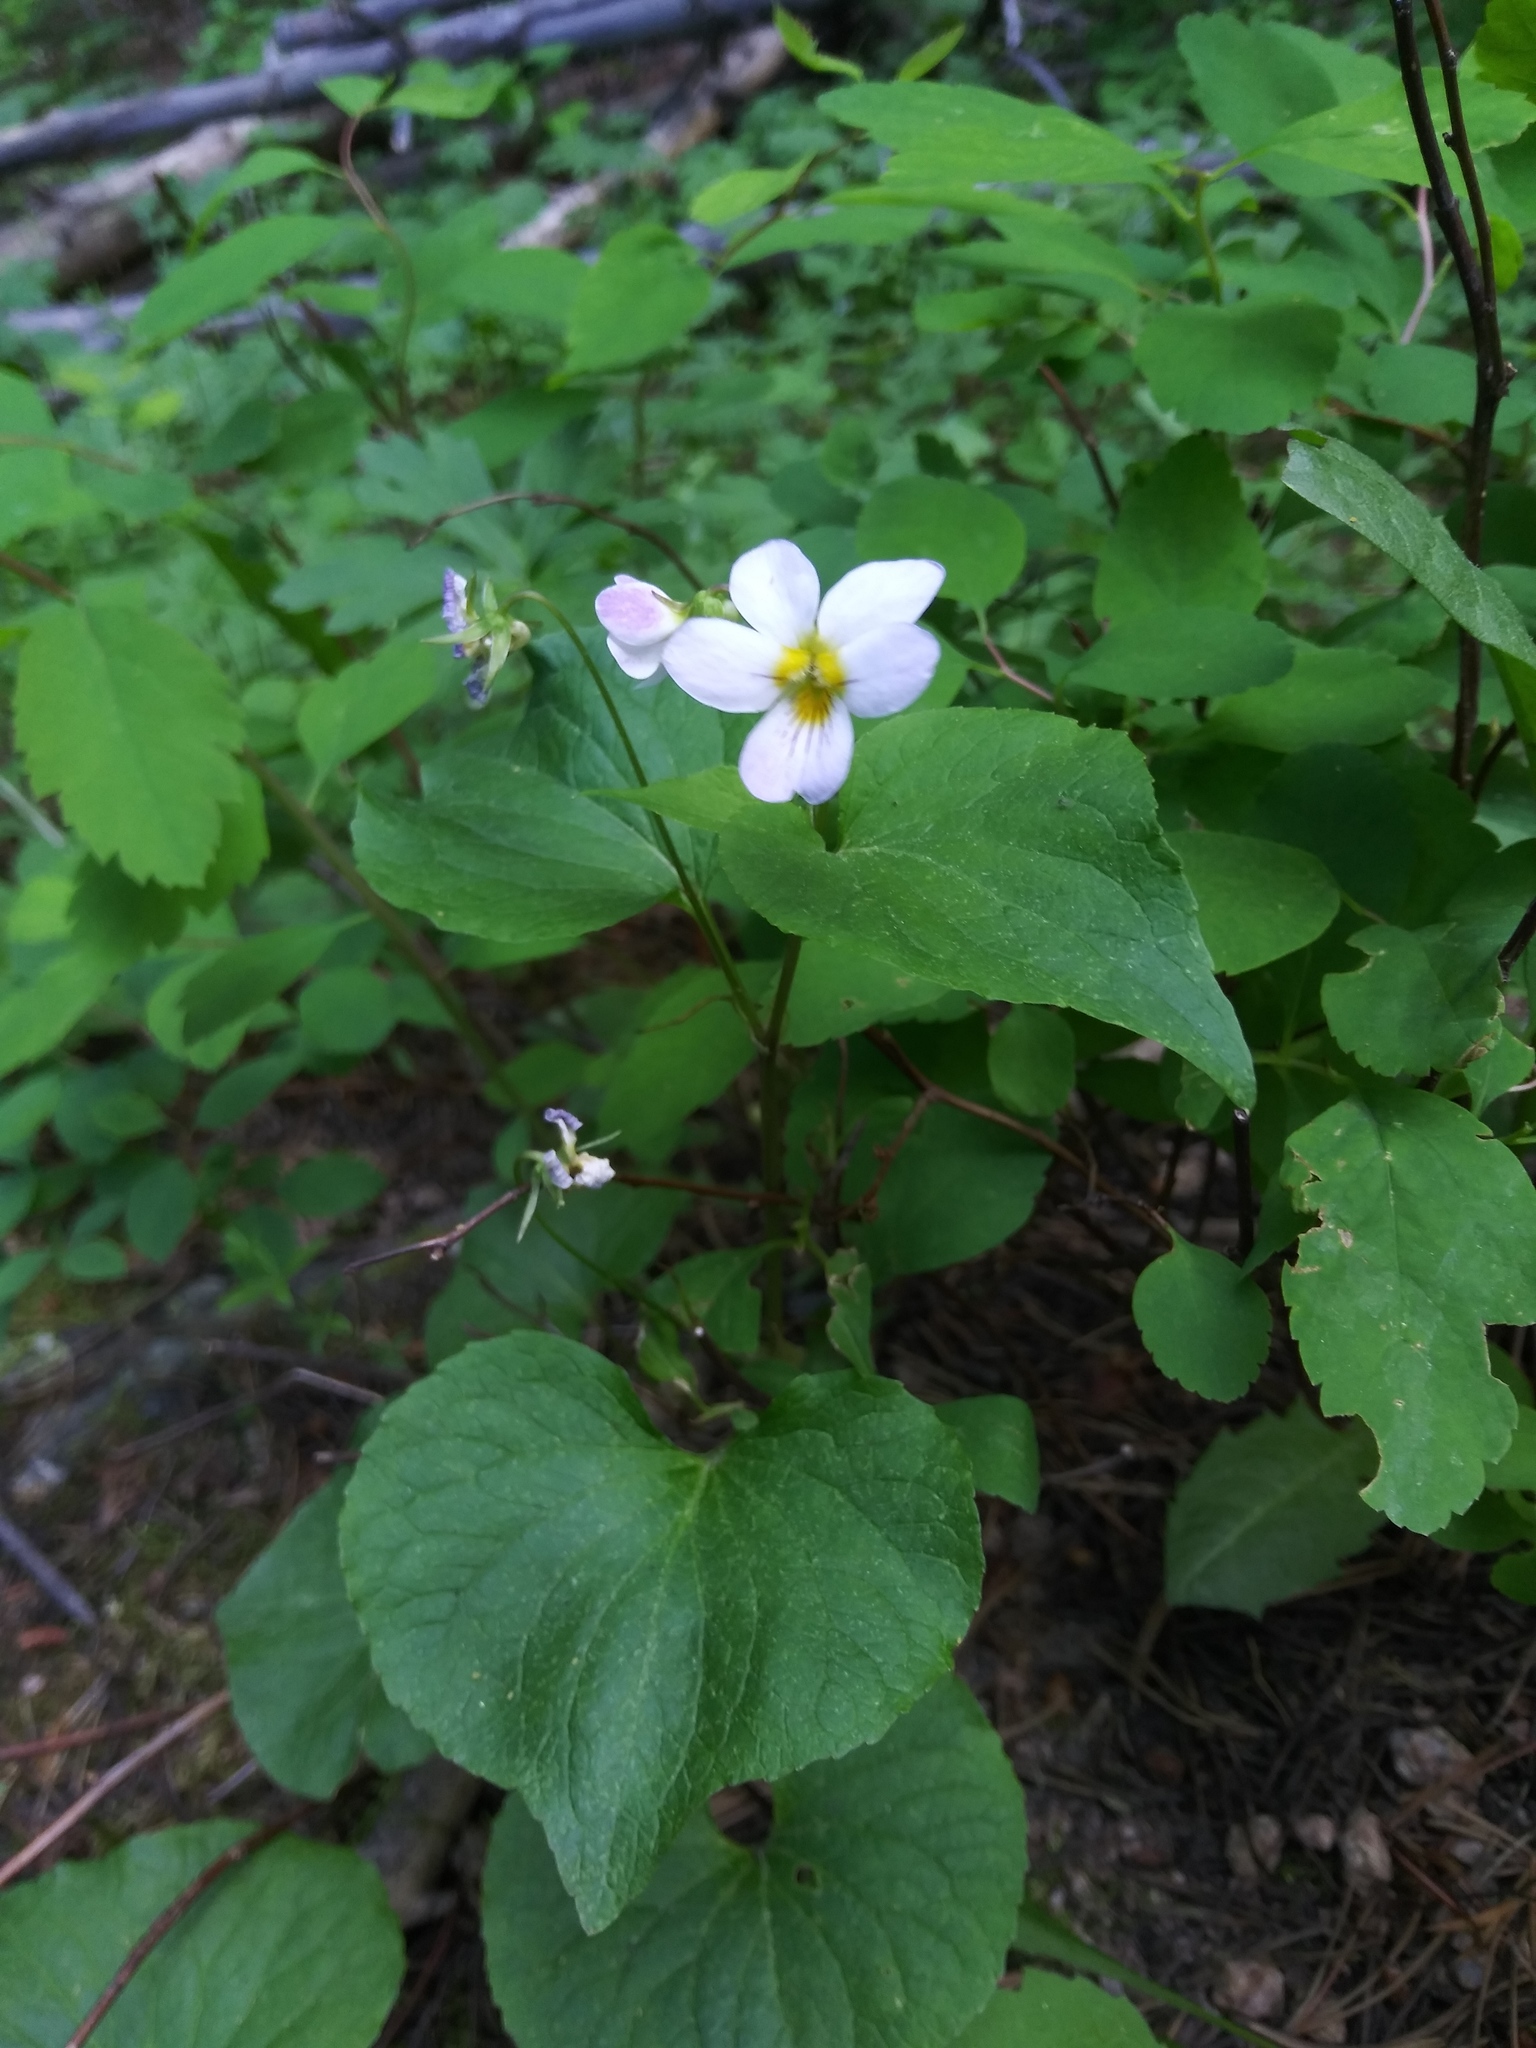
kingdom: Plantae
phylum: Tracheophyta
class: Magnoliopsida
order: Malpighiales
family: Violaceae
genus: Viola
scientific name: Viola canadensis
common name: Canada violet
